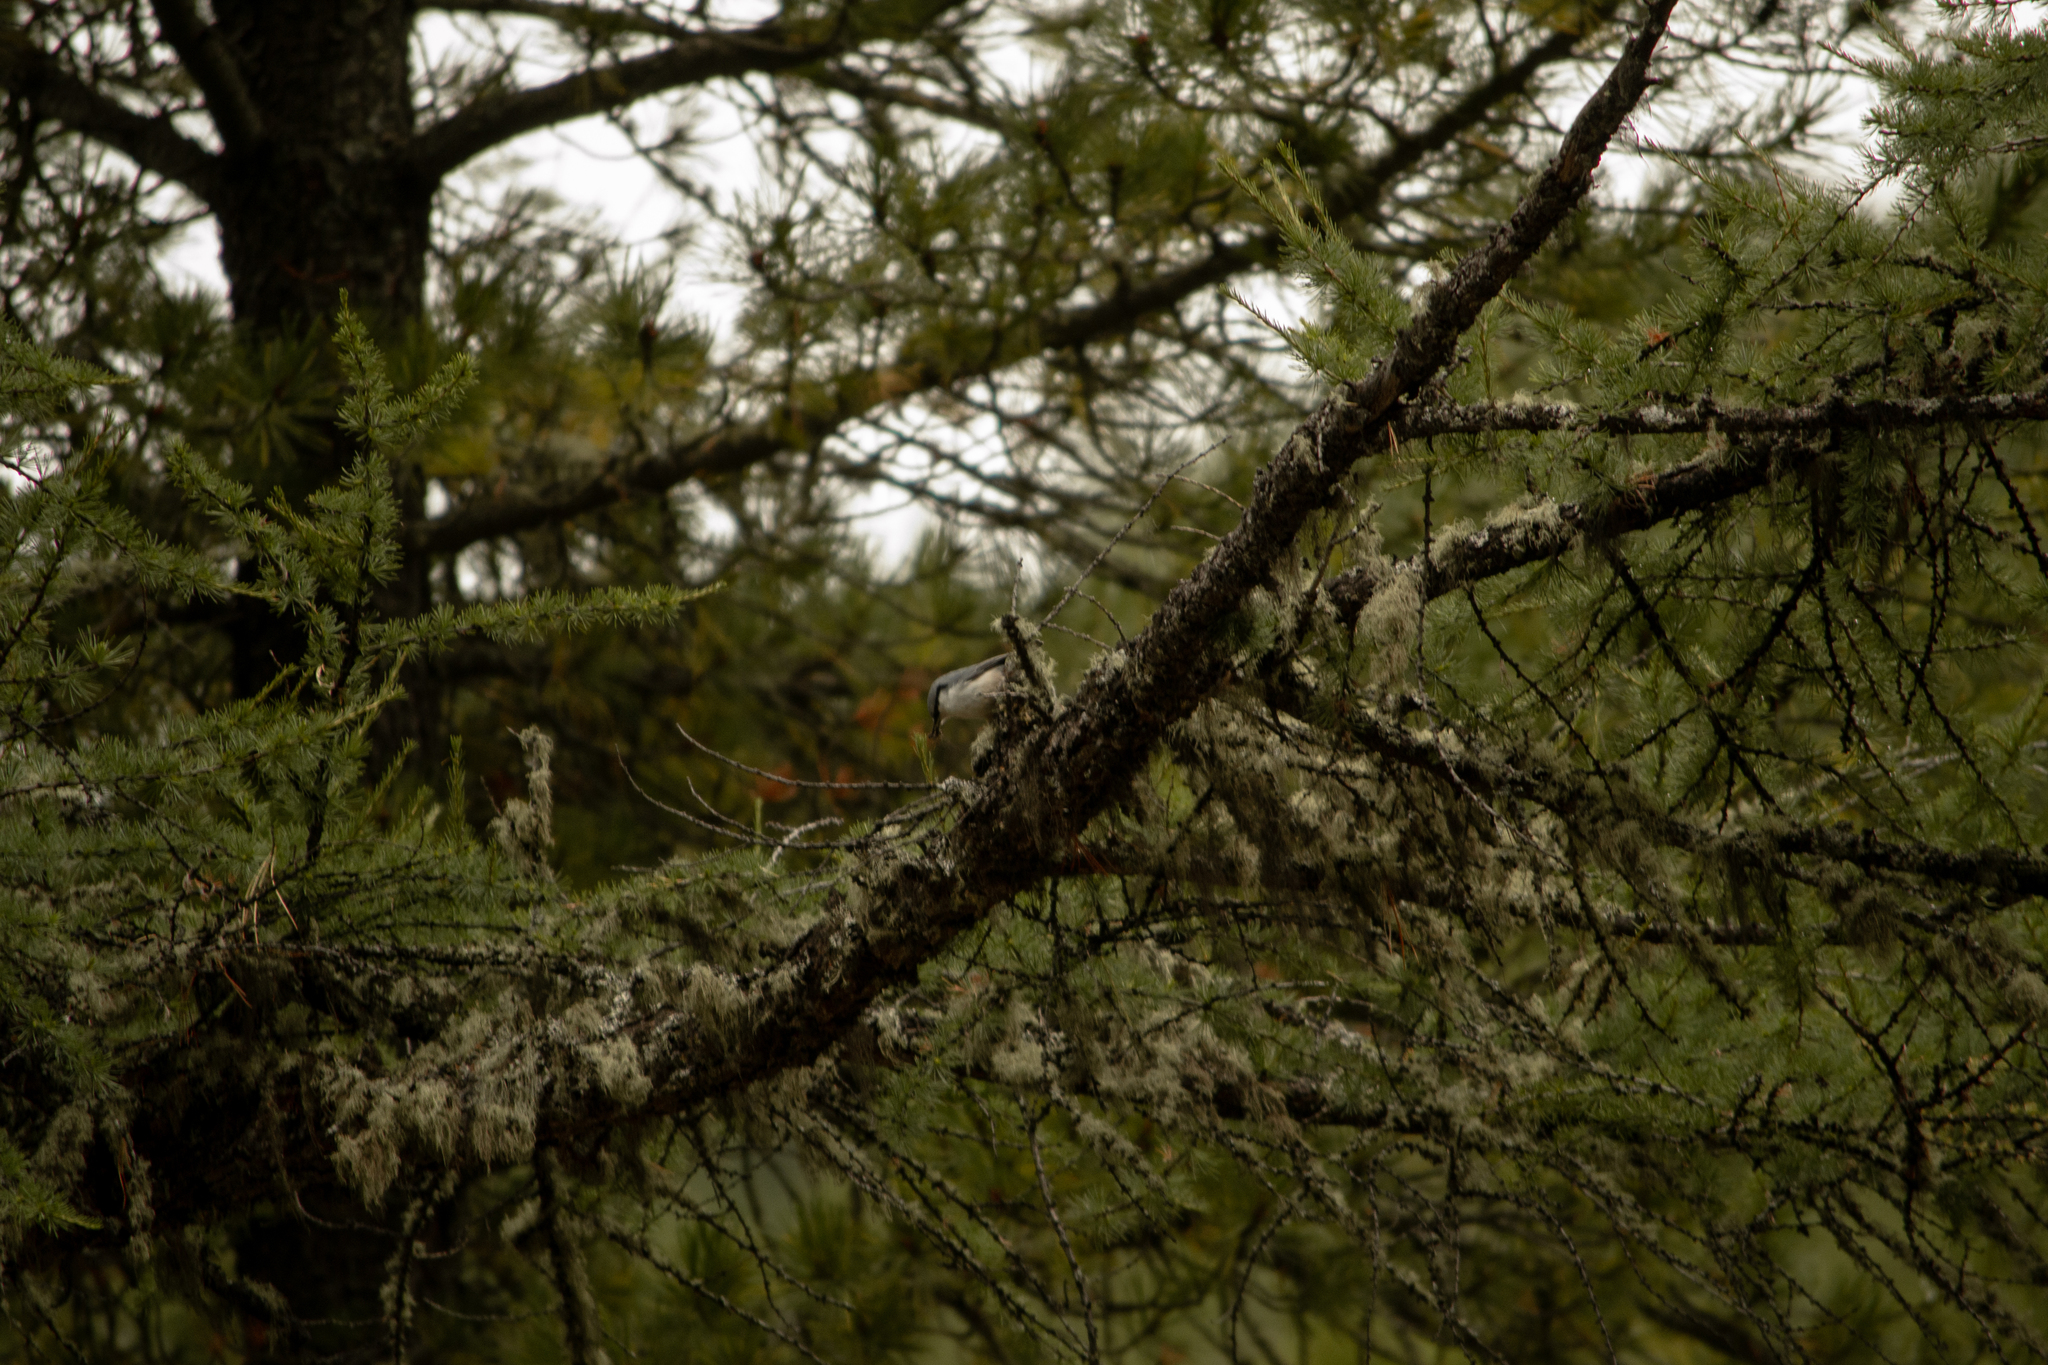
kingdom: Animalia
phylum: Chordata
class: Aves
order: Passeriformes
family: Sittidae
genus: Sitta
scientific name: Sitta europaea
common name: Eurasian nuthatch
